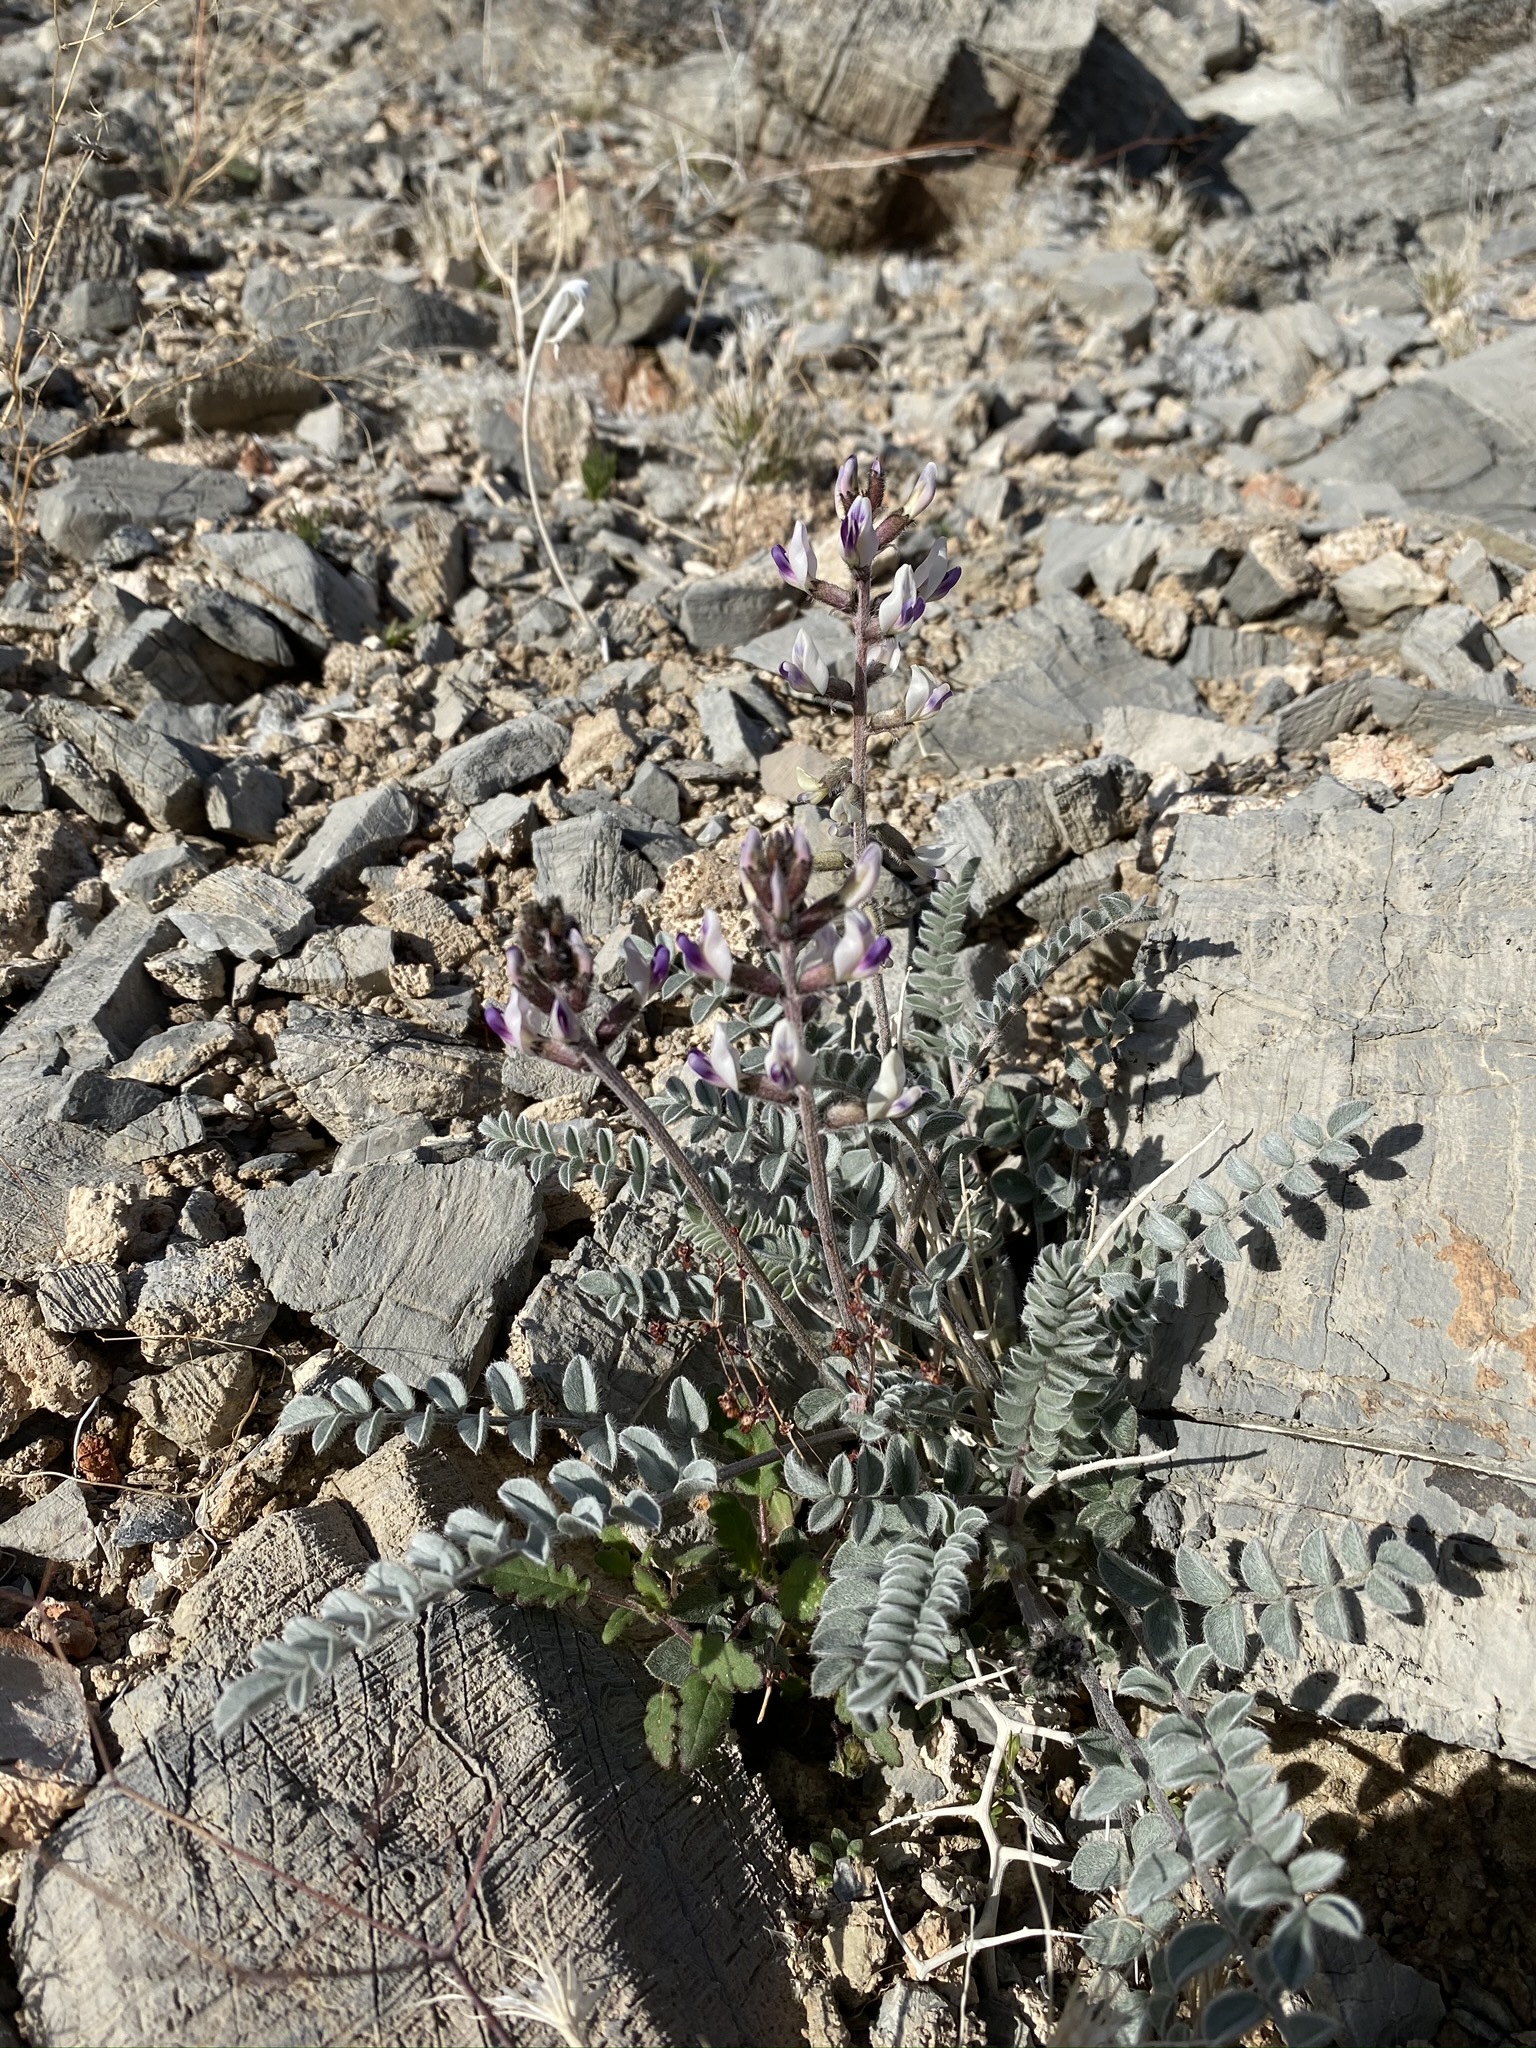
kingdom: Plantae
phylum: Tracheophyta
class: Magnoliopsida
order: Fabales
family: Fabaceae
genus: Astragalus
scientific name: Astragalus layneae
